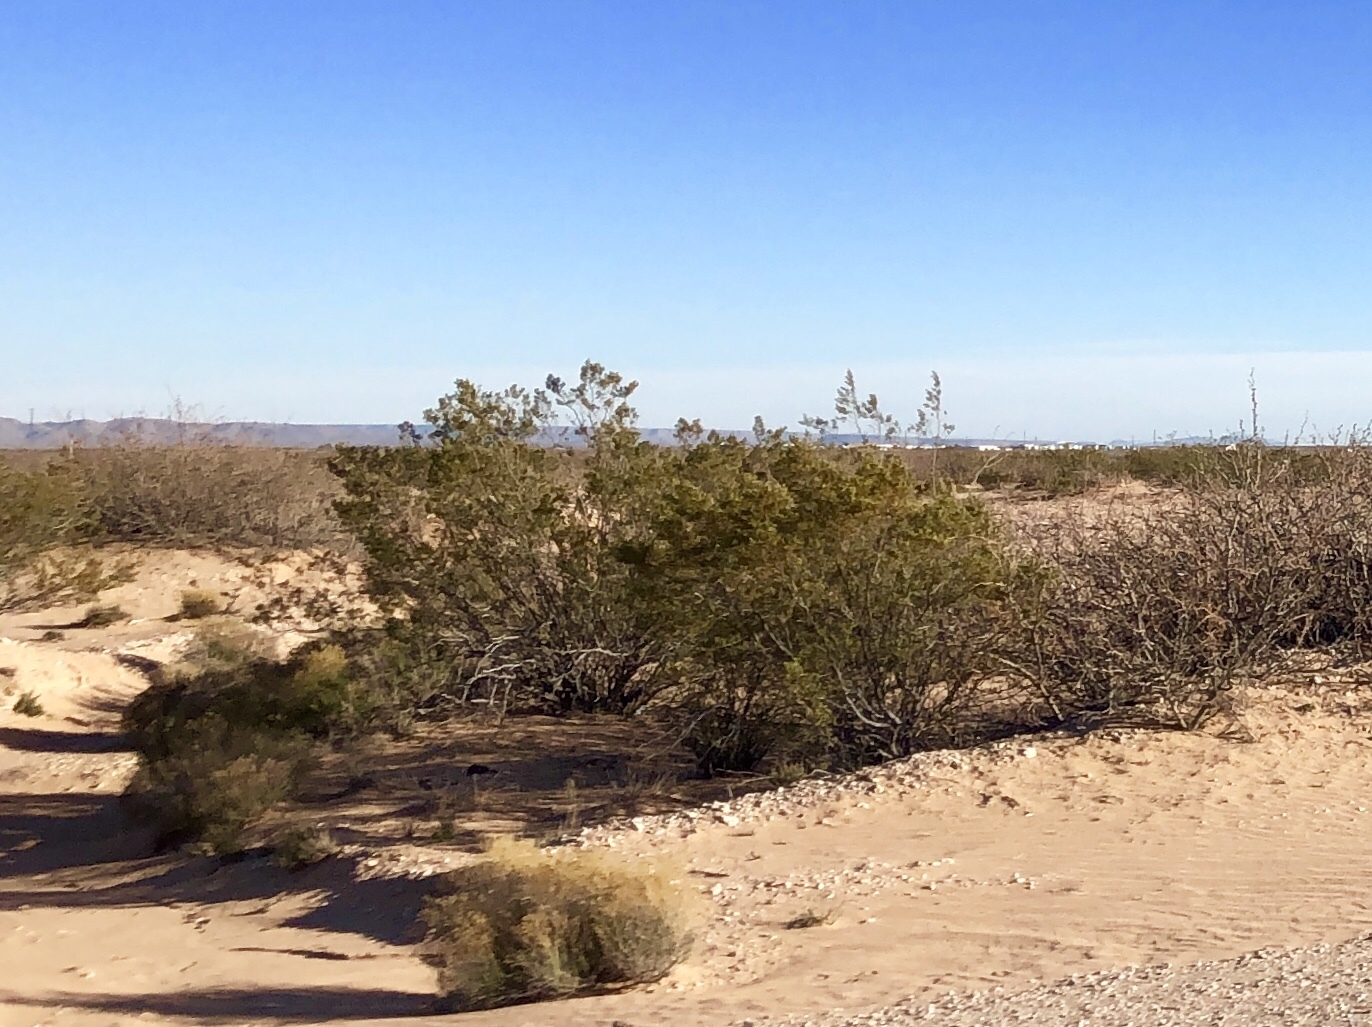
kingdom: Plantae
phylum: Tracheophyta
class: Magnoliopsida
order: Zygophyllales
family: Zygophyllaceae
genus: Larrea
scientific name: Larrea tridentata
